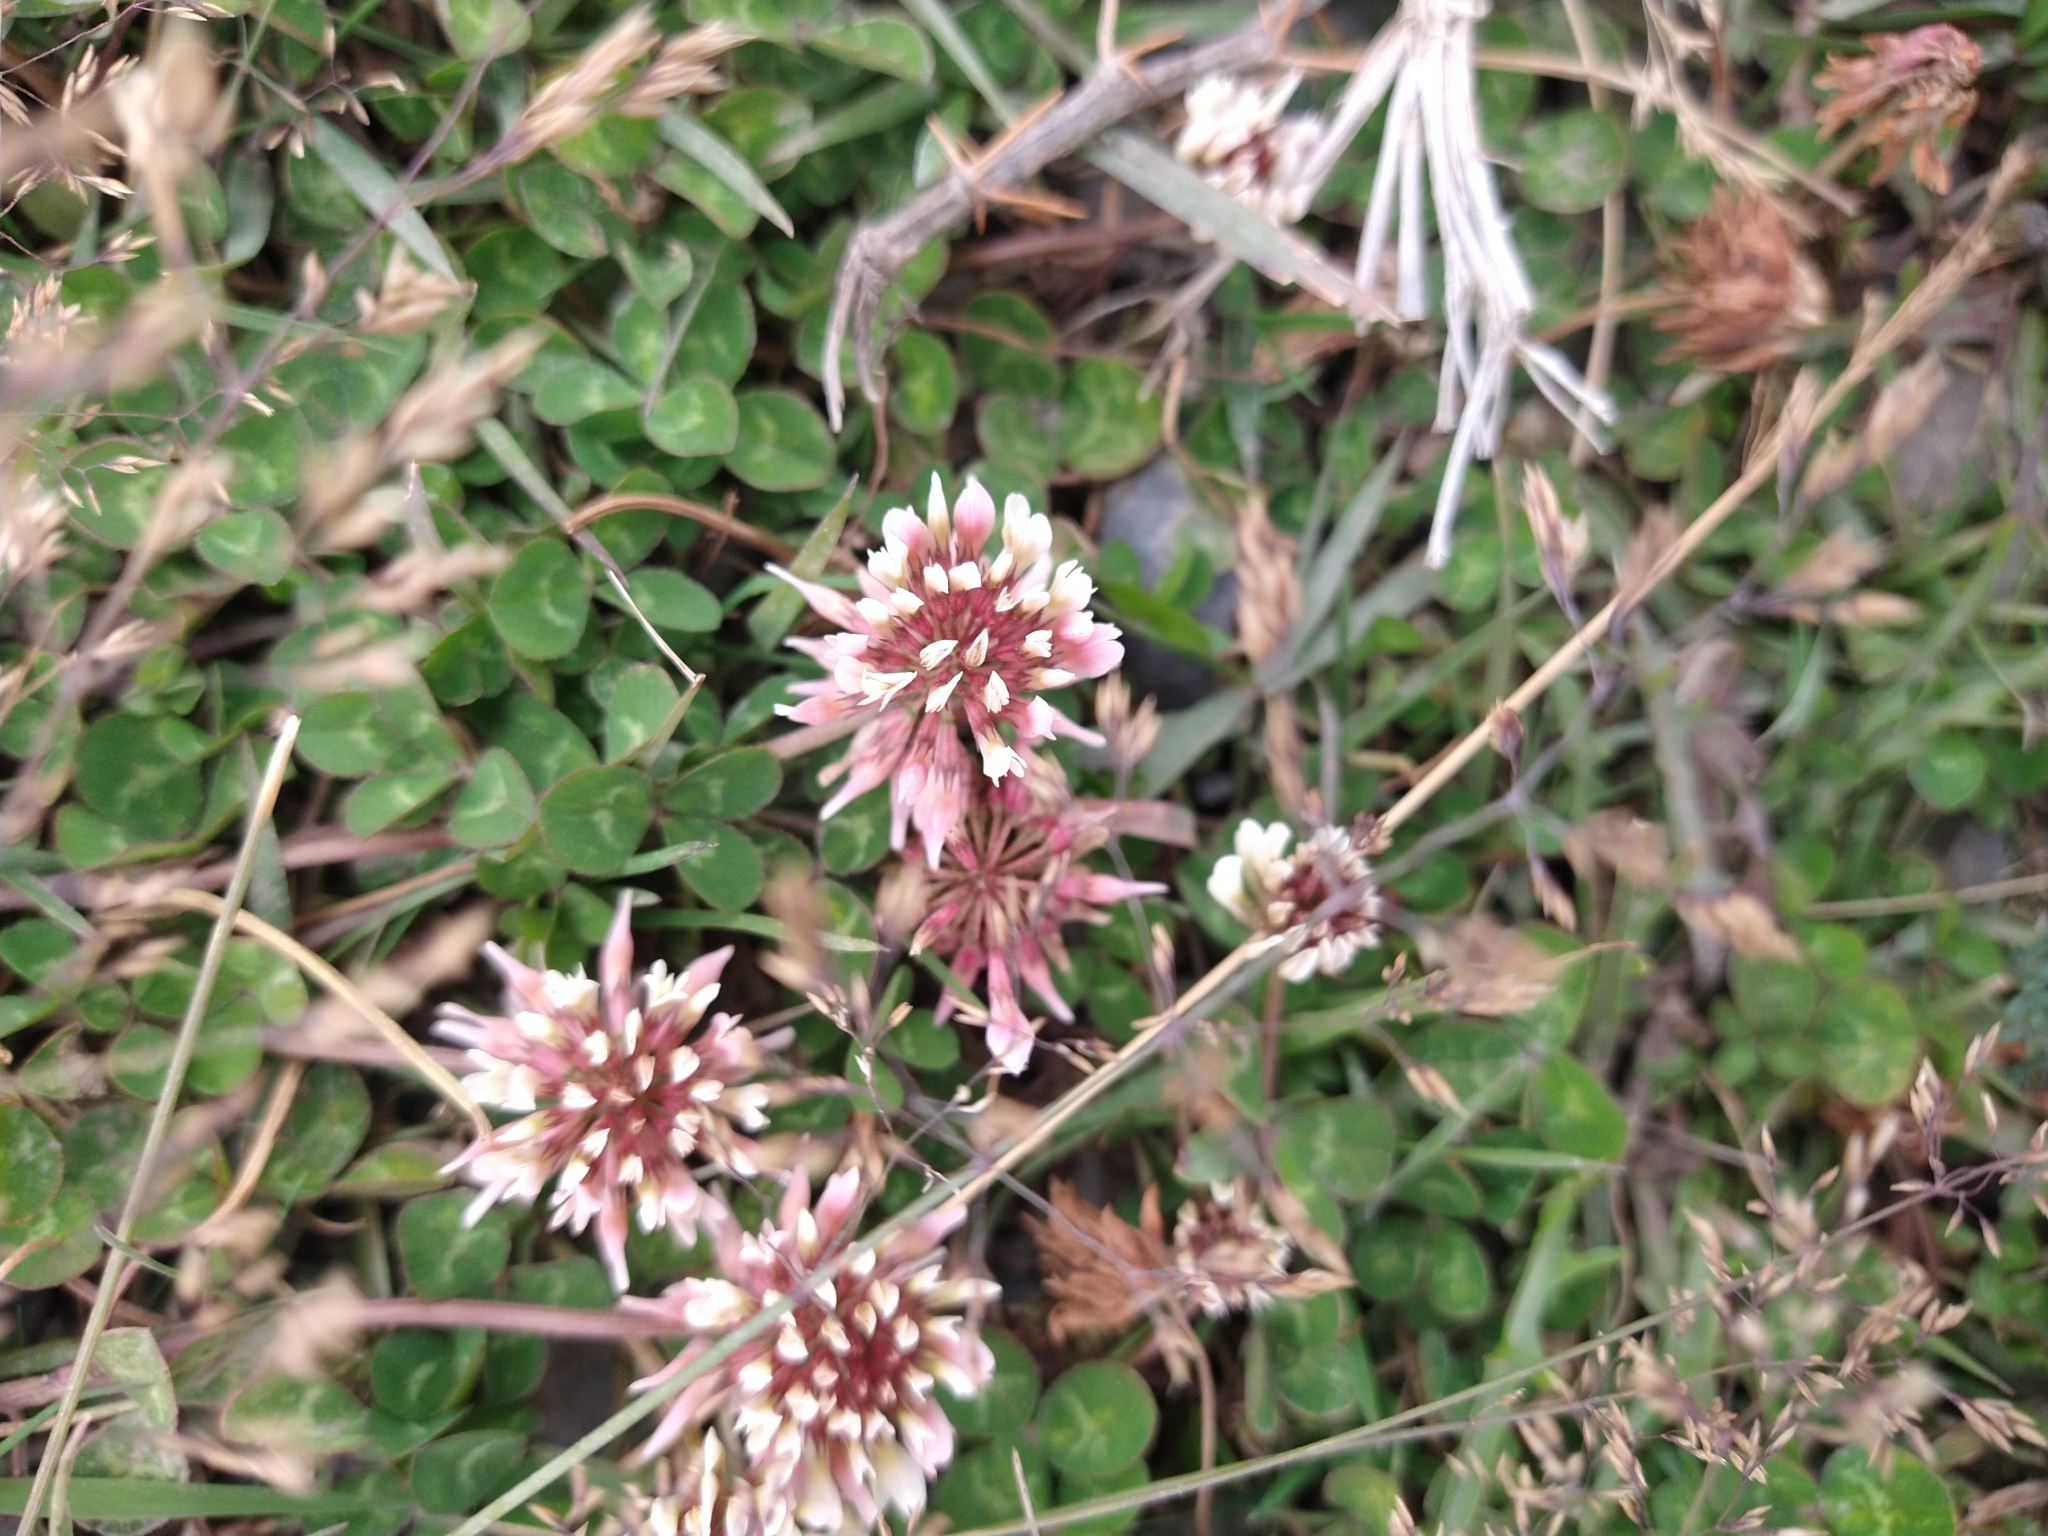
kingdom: Plantae
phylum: Tracheophyta
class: Magnoliopsida
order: Fabales
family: Fabaceae
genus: Trifolium
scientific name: Trifolium repens
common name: White clover
